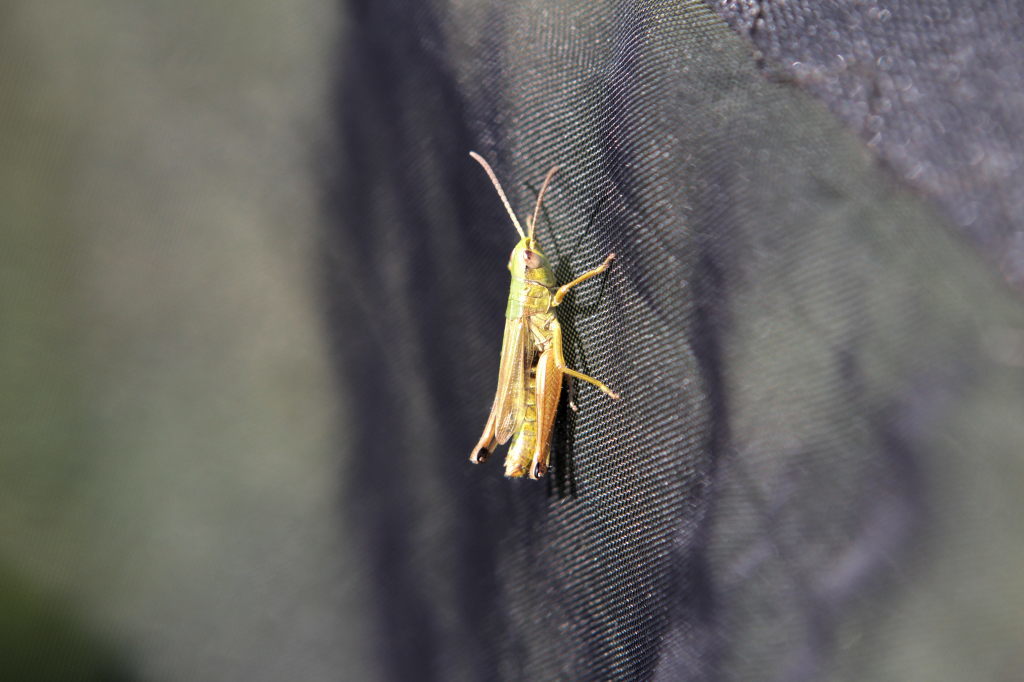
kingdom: Animalia
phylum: Arthropoda
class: Insecta
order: Orthoptera
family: Acrididae
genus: Pseudochorthippus
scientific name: Pseudochorthippus parallelus
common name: Meadow grasshopper
